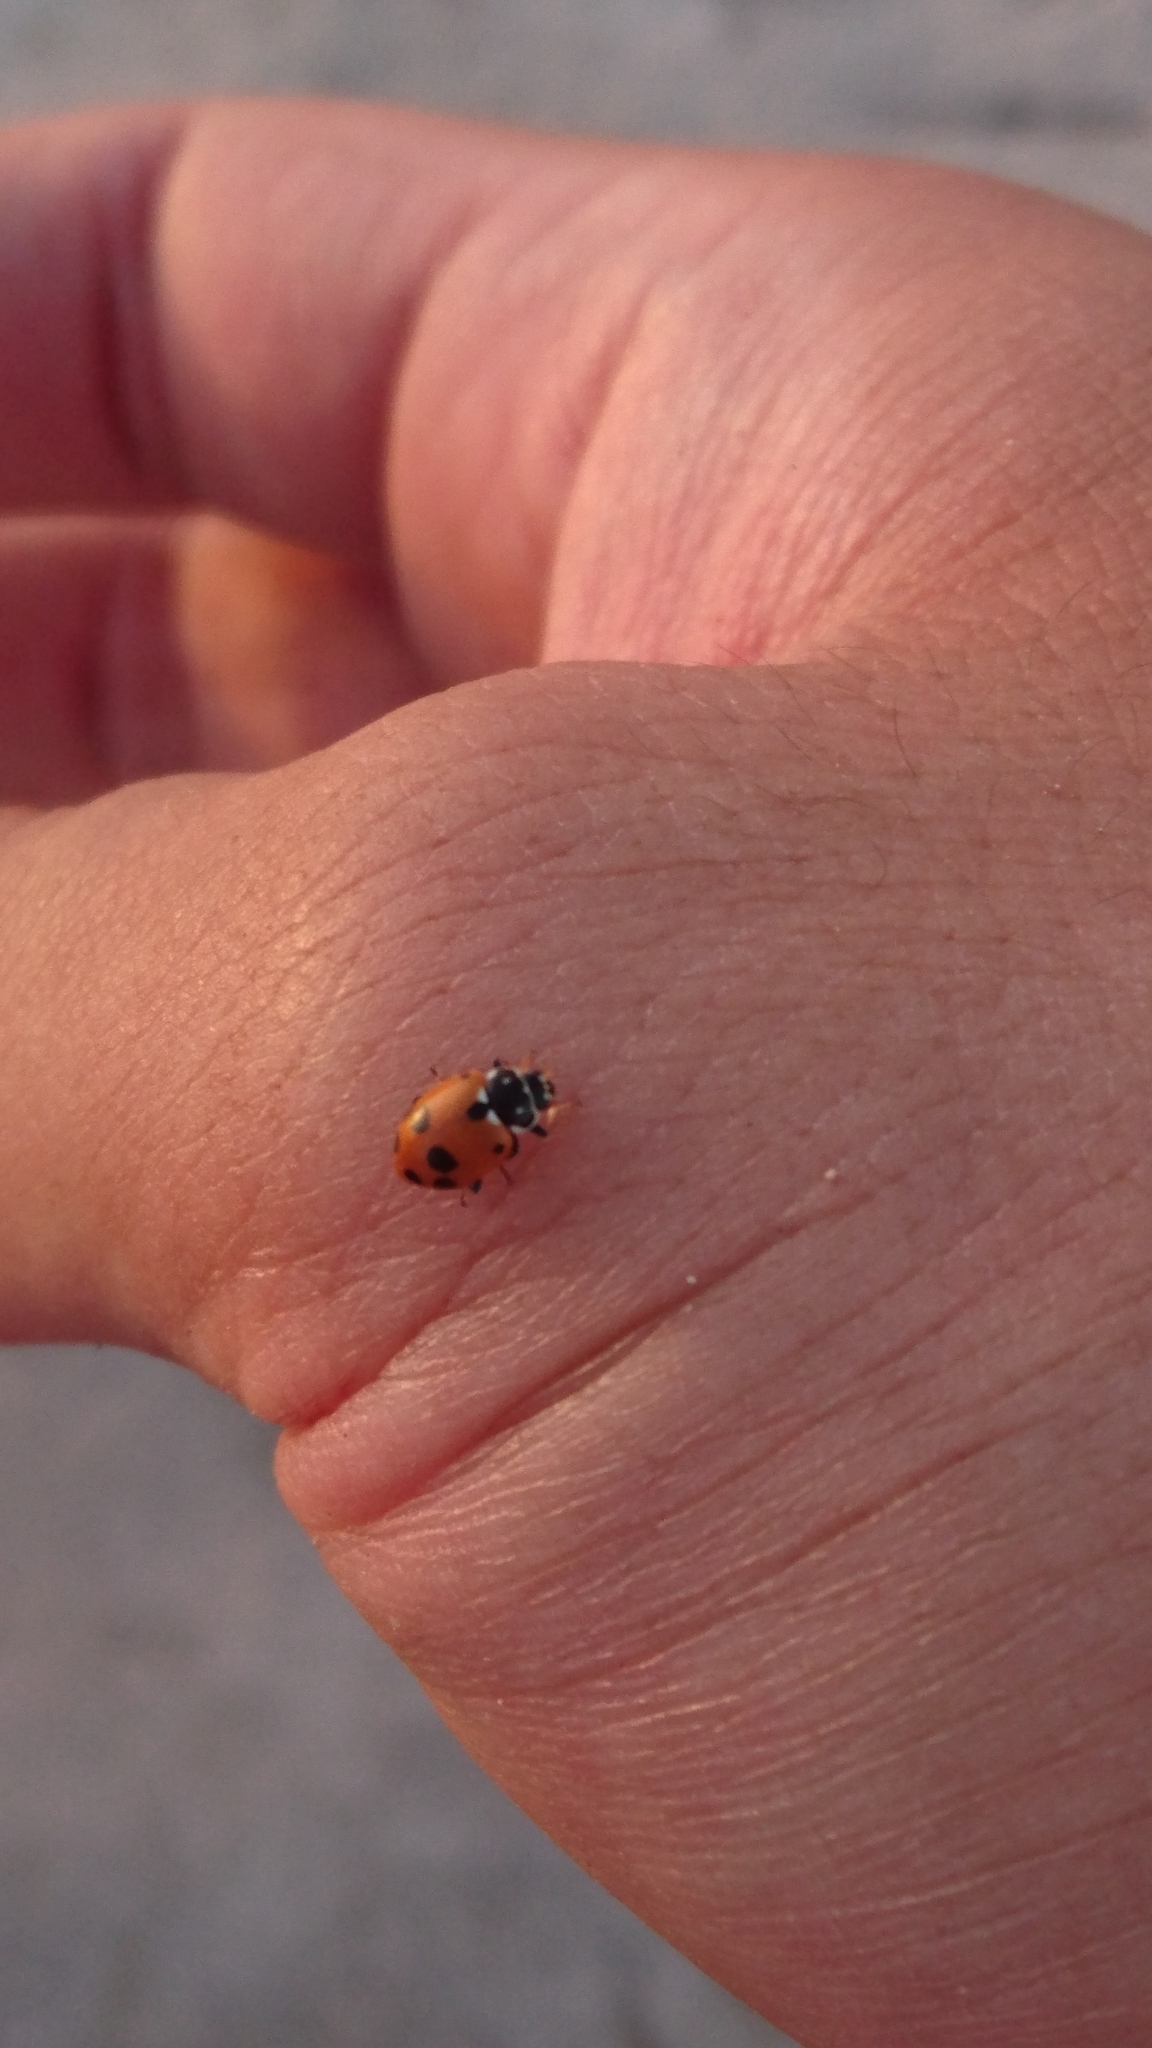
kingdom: Animalia
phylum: Arthropoda
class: Insecta
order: Coleoptera
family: Coccinellidae
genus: Hippodamia
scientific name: Hippodamia variegata
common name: Ladybird beetle
